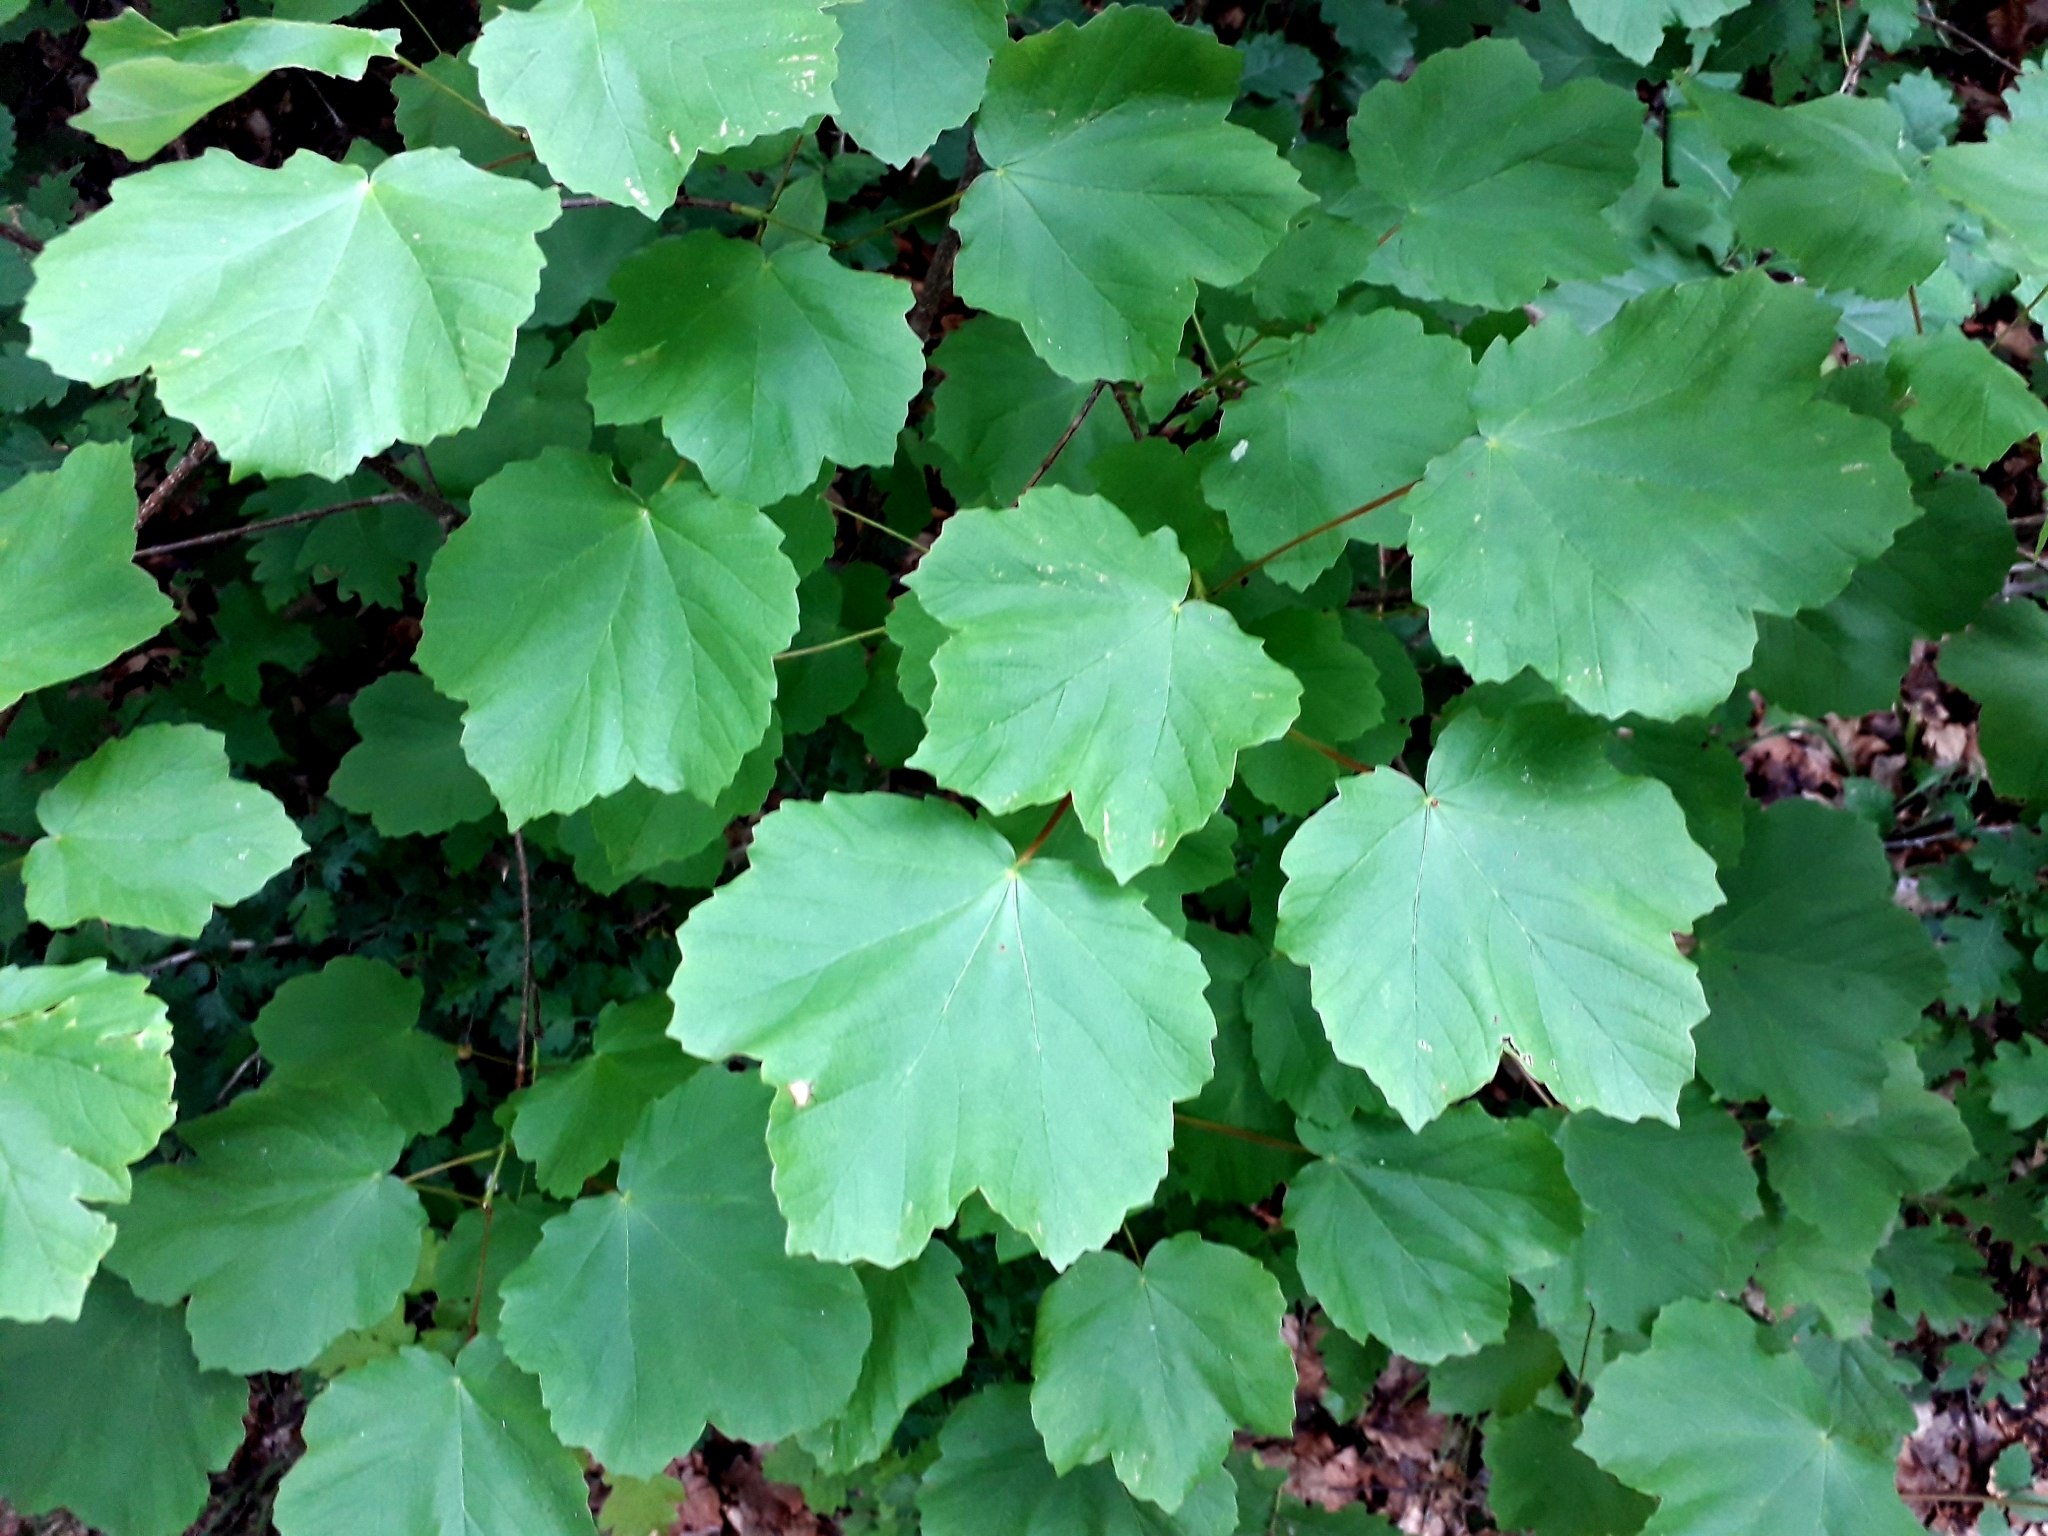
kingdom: Plantae
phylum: Tracheophyta
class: Magnoliopsida
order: Sapindales
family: Sapindaceae
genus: Acer
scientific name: Acer opalus
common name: Italian maple
